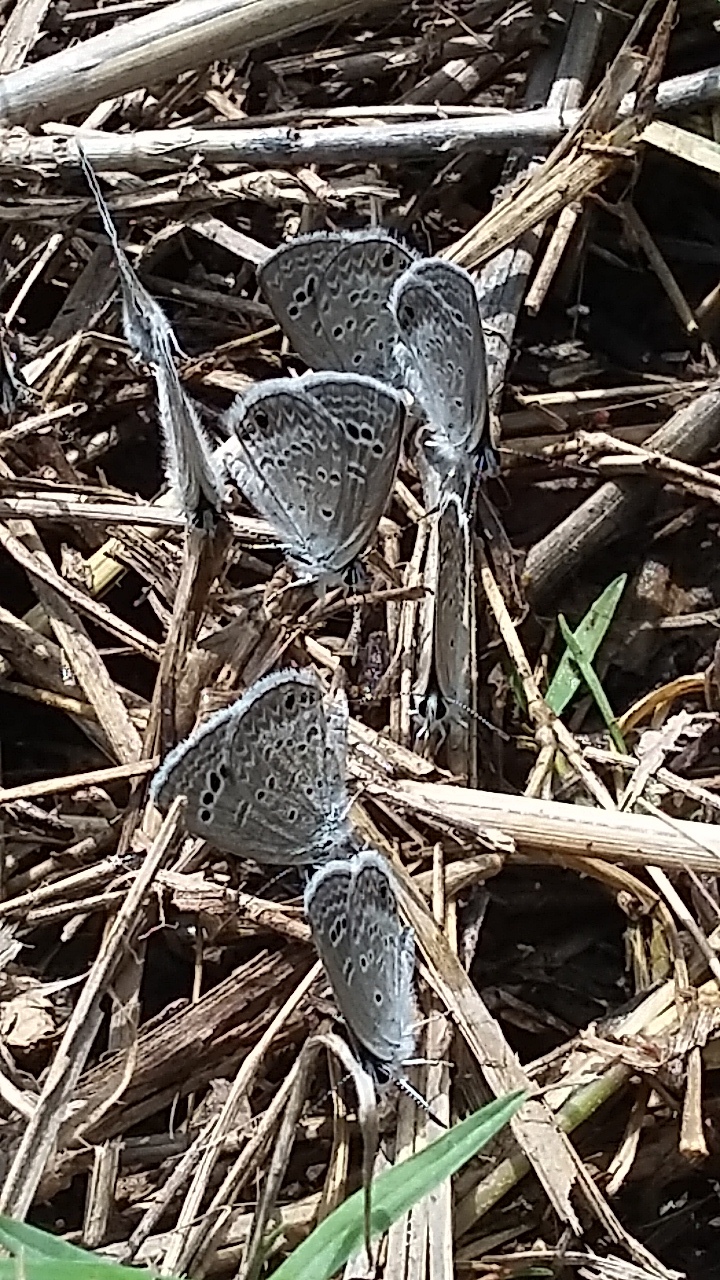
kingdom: Animalia
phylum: Arthropoda
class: Insecta
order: Lepidoptera
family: Lycaenidae
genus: Echinargus
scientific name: Echinargus isola
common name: Reakirt's blue
